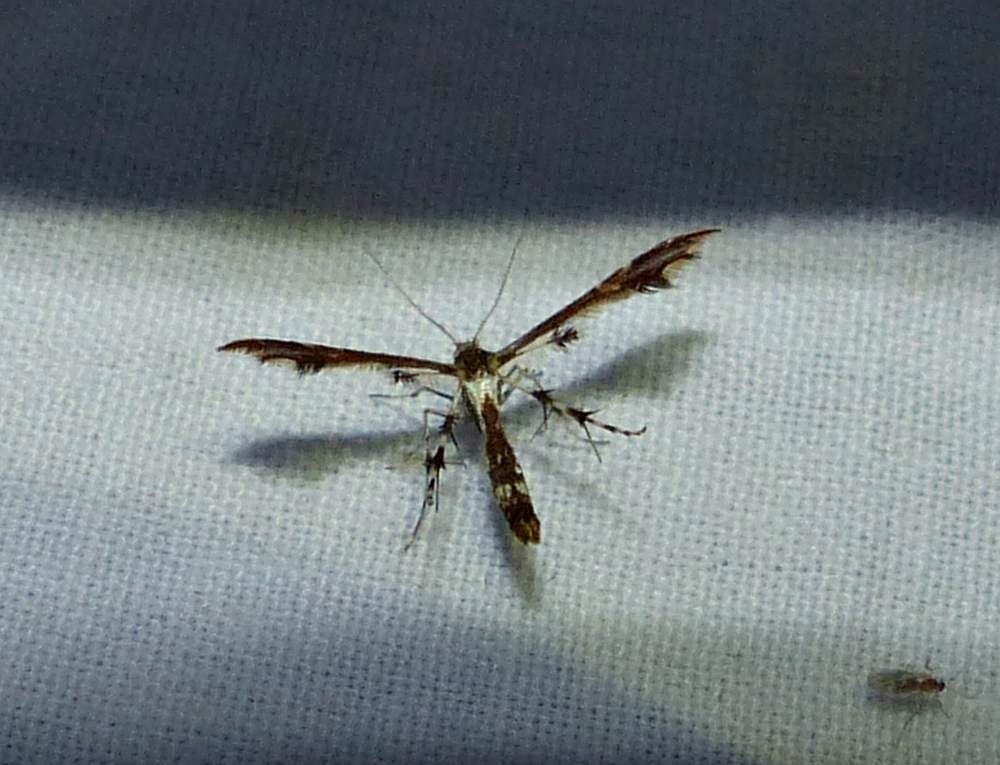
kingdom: Animalia
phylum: Arthropoda
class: Insecta
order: Lepidoptera
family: Pterophoridae
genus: Geina
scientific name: Geina
